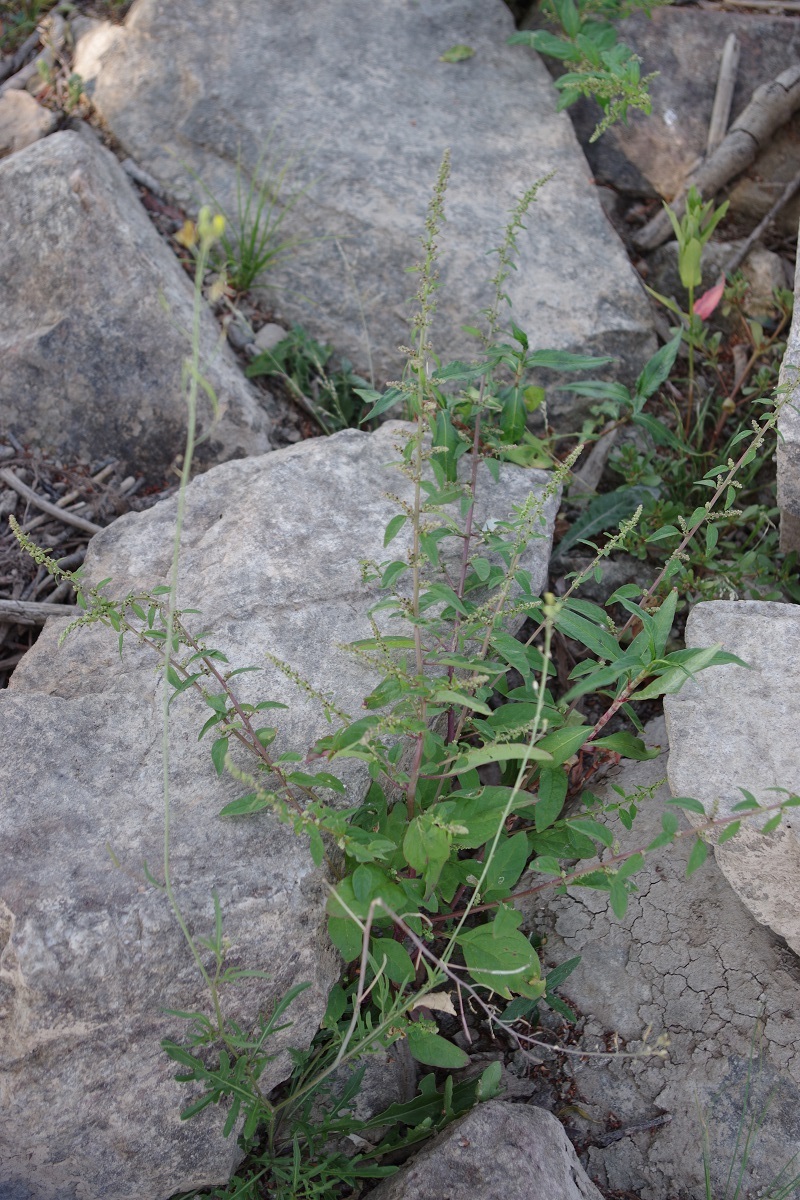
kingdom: Plantae
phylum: Tracheophyta
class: Magnoliopsida
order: Caryophyllales
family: Amaranthaceae
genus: Lipandra
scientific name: Lipandra polysperma
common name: Many-seed goosefoot
